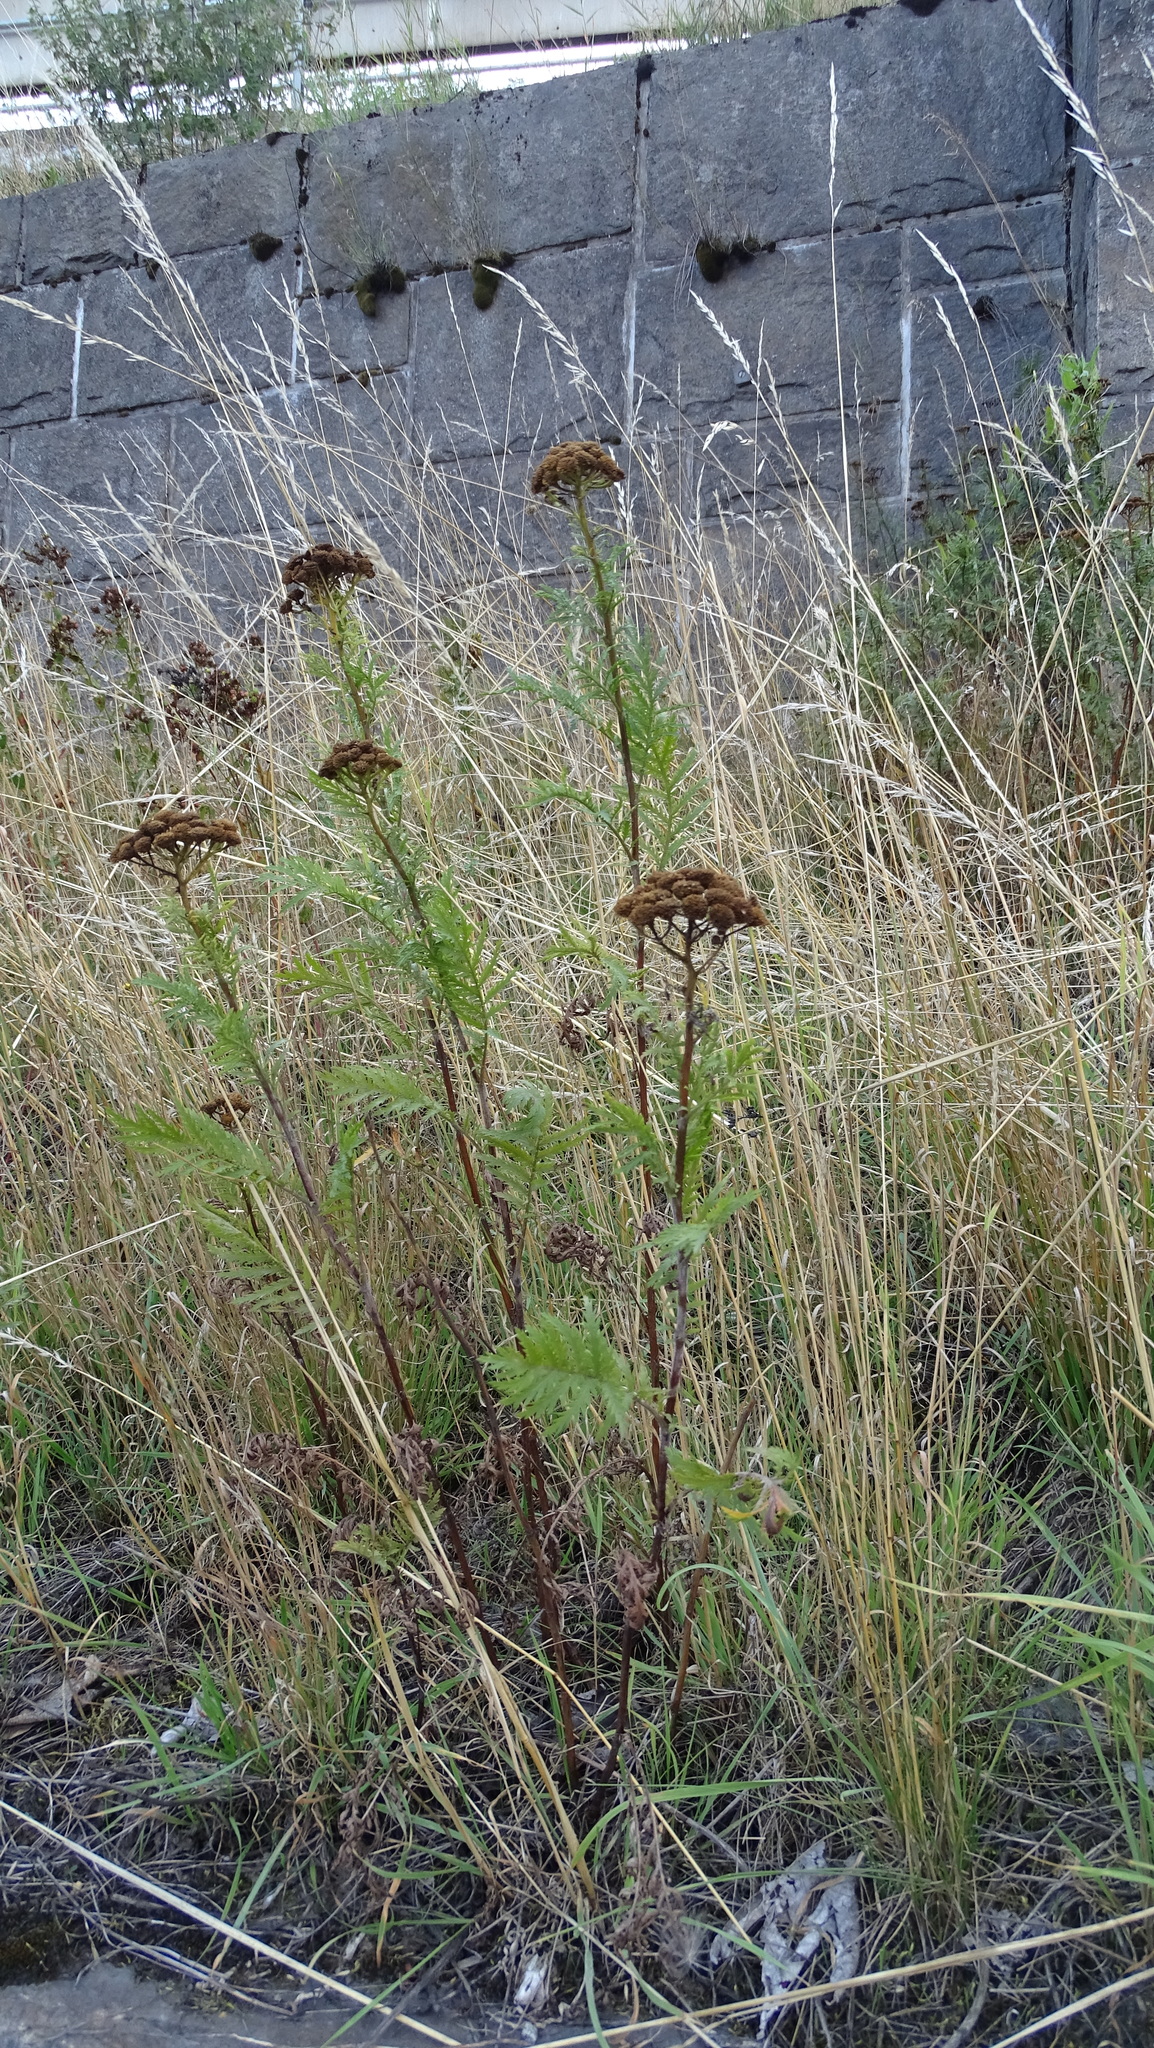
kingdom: Plantae
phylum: Tracheophyta
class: Magnoliopsida
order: Asterales
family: Asteraceae
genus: Tanacetum
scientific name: Tanacetum vulgare
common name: Common tansy
